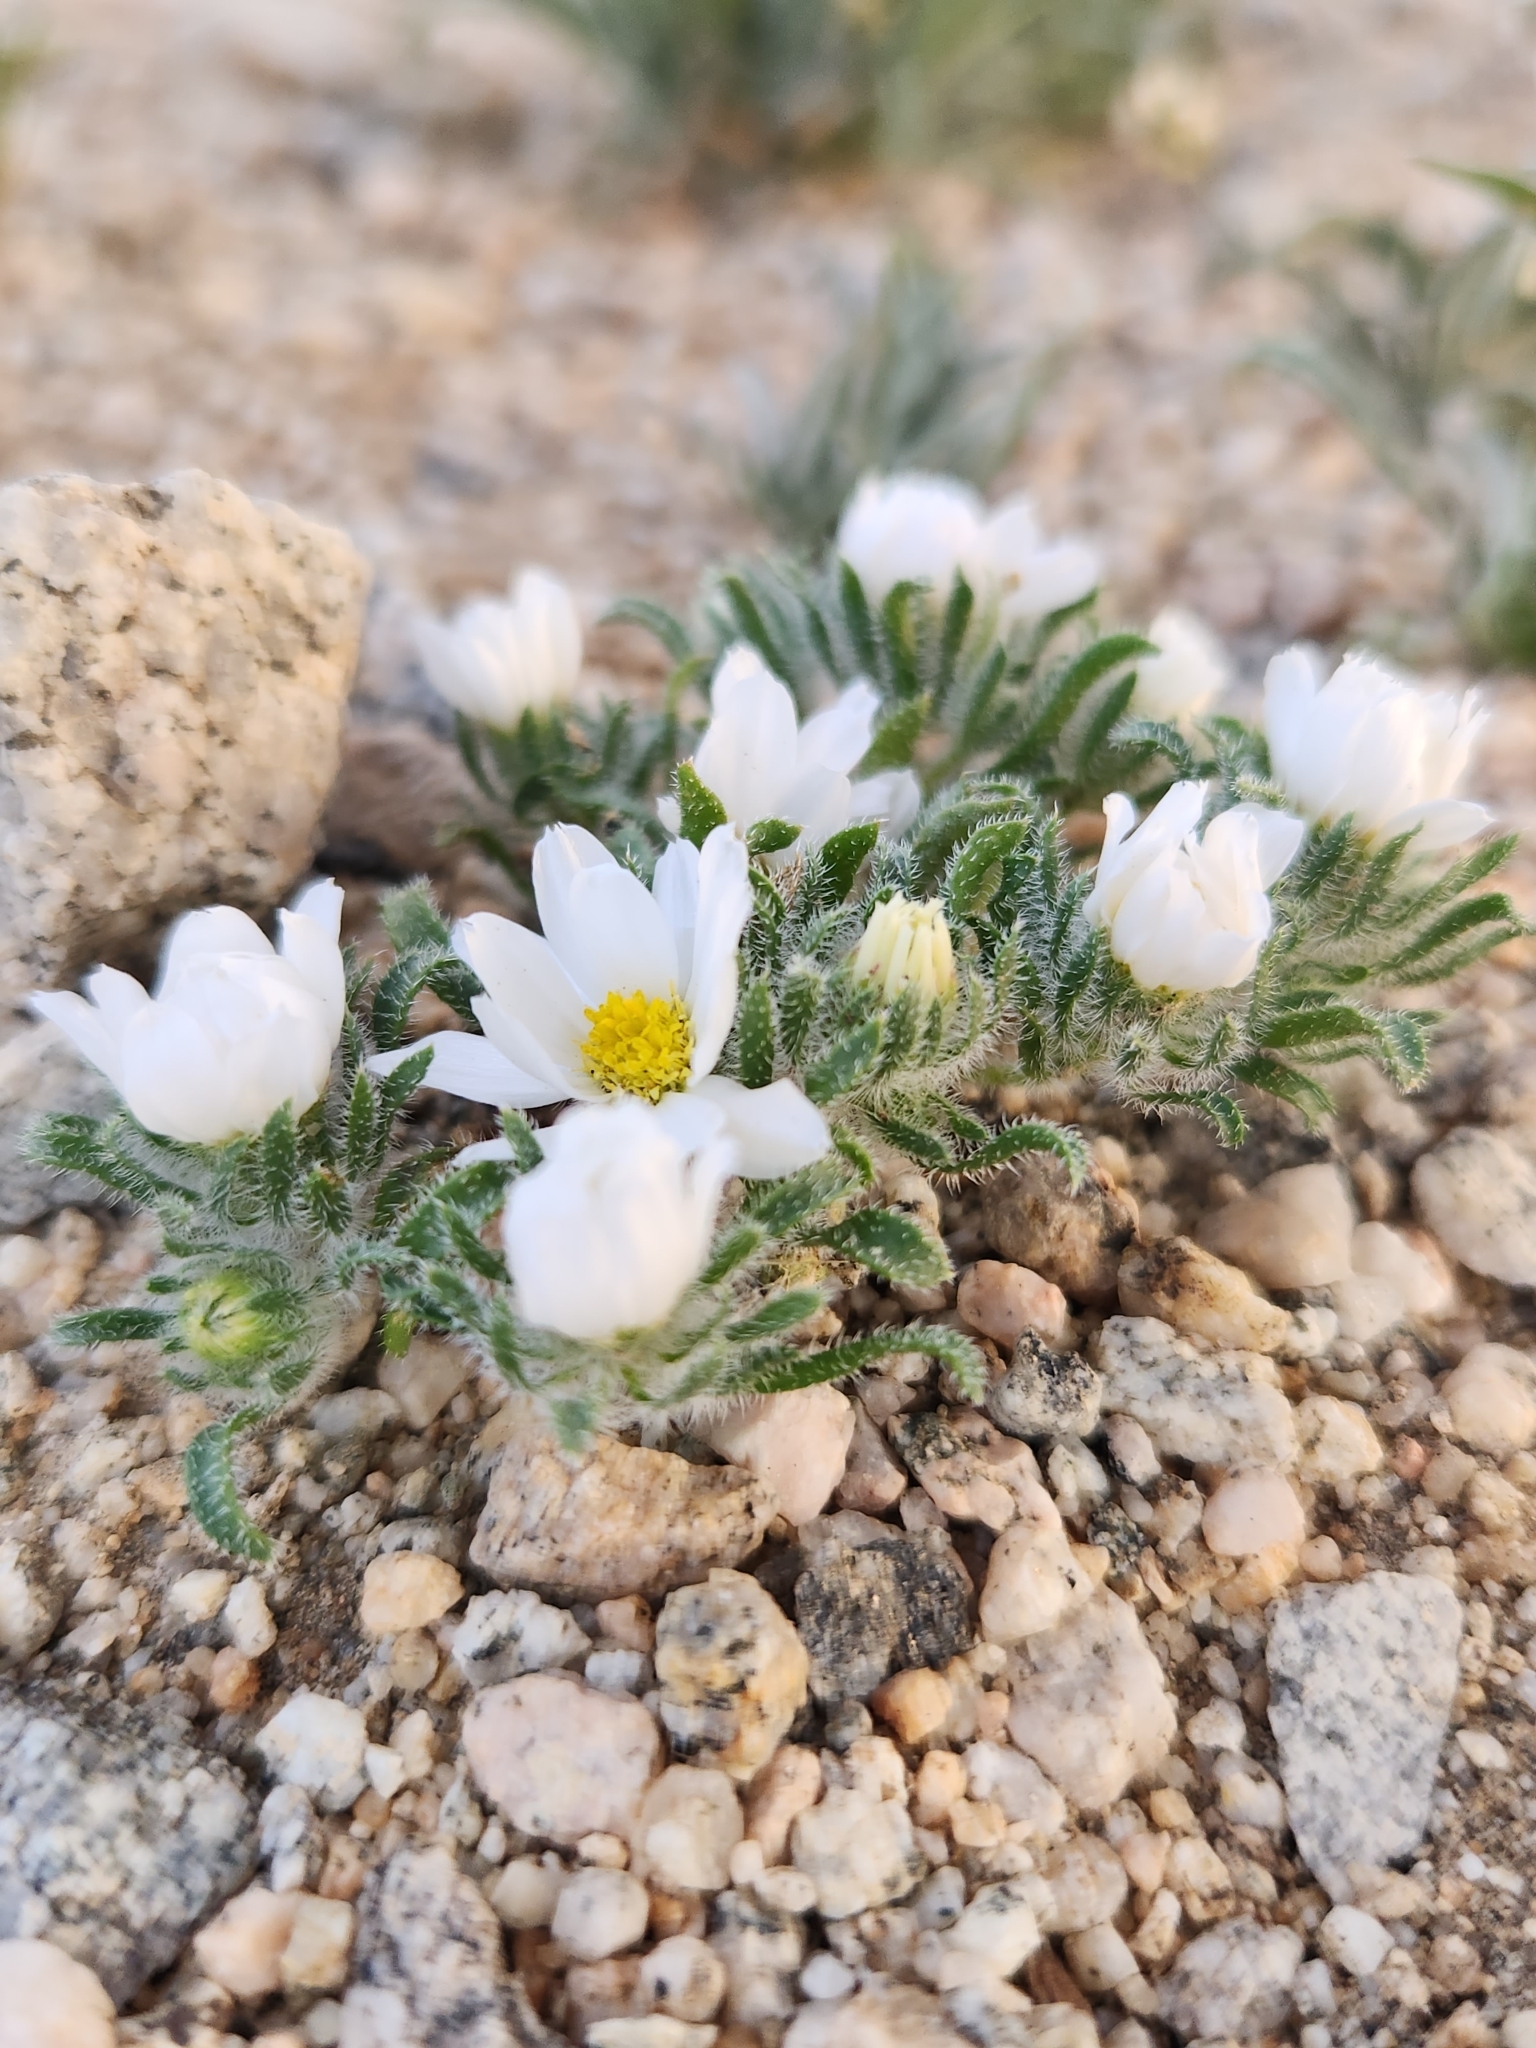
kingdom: Plantae
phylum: Tracheophyta
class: Magnoliopsida
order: Asterales
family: Asteraceae
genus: Monoptilon
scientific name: Monoptilon bellioides
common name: Bristly desertstar
